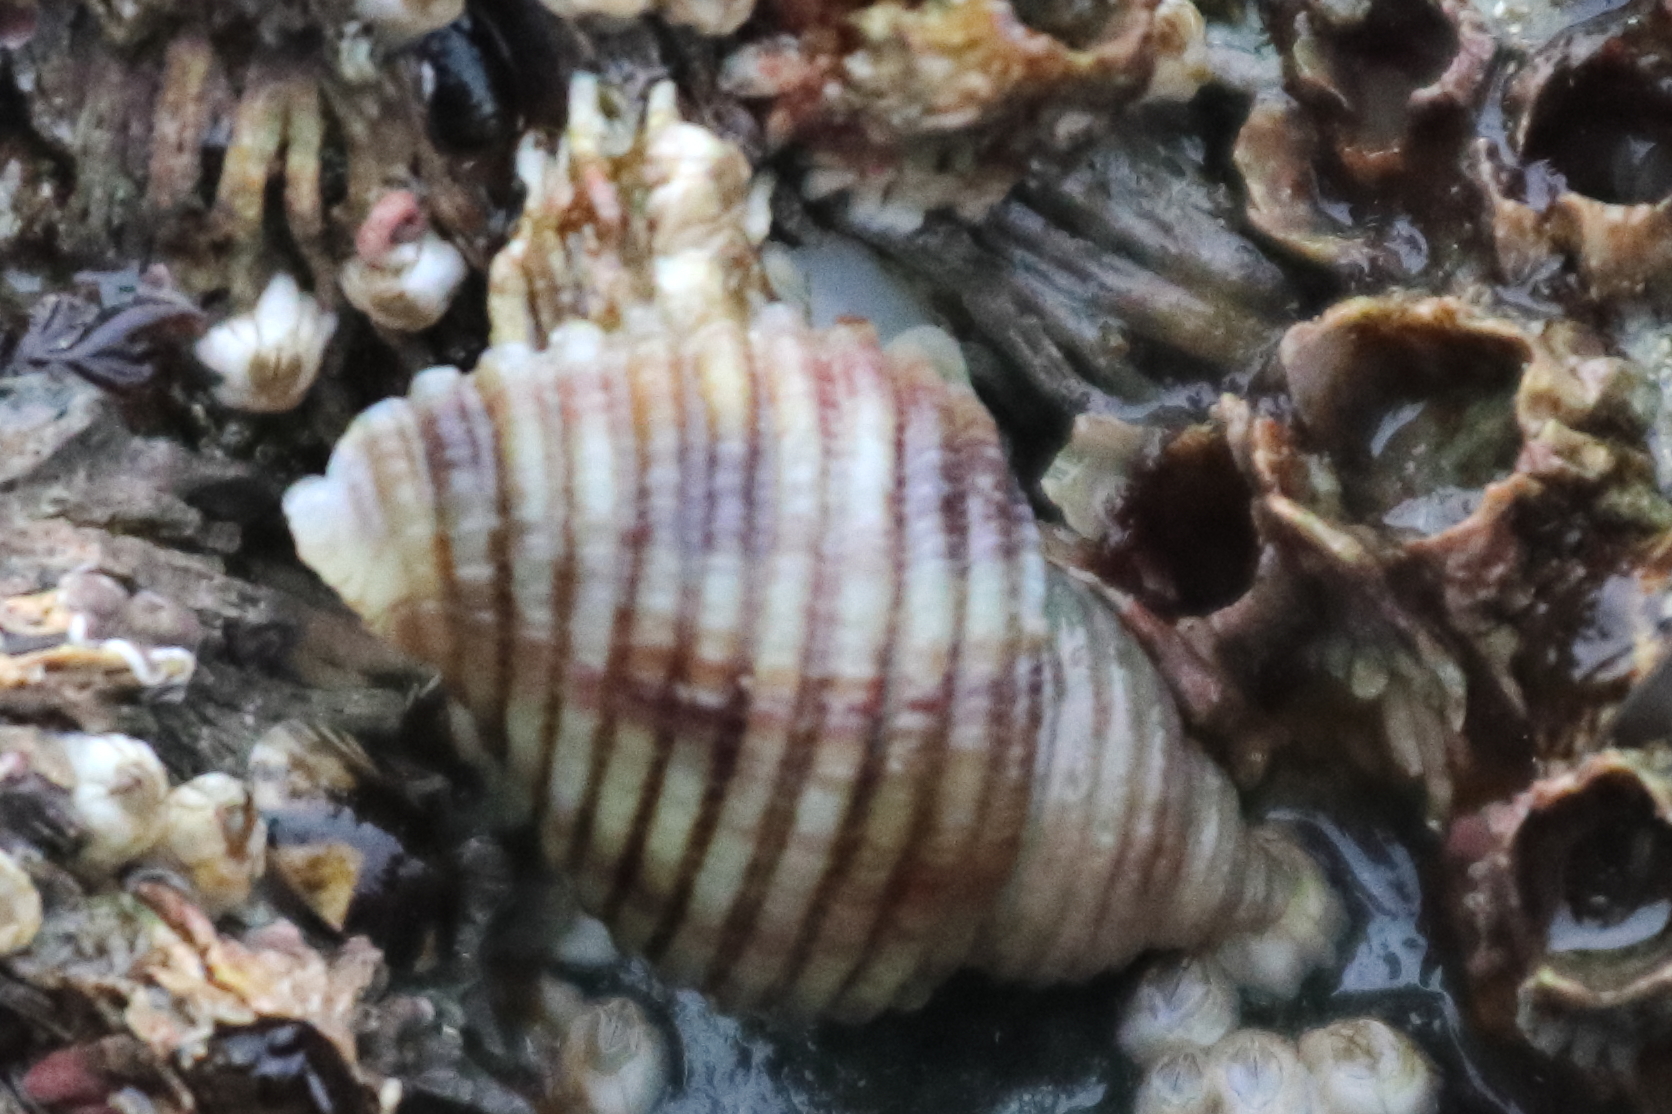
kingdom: Animalia
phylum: Mollusca
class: Gastropoda
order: Neogastropoda
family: Muricidae
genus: Nucella
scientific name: Nucella canaliculata
